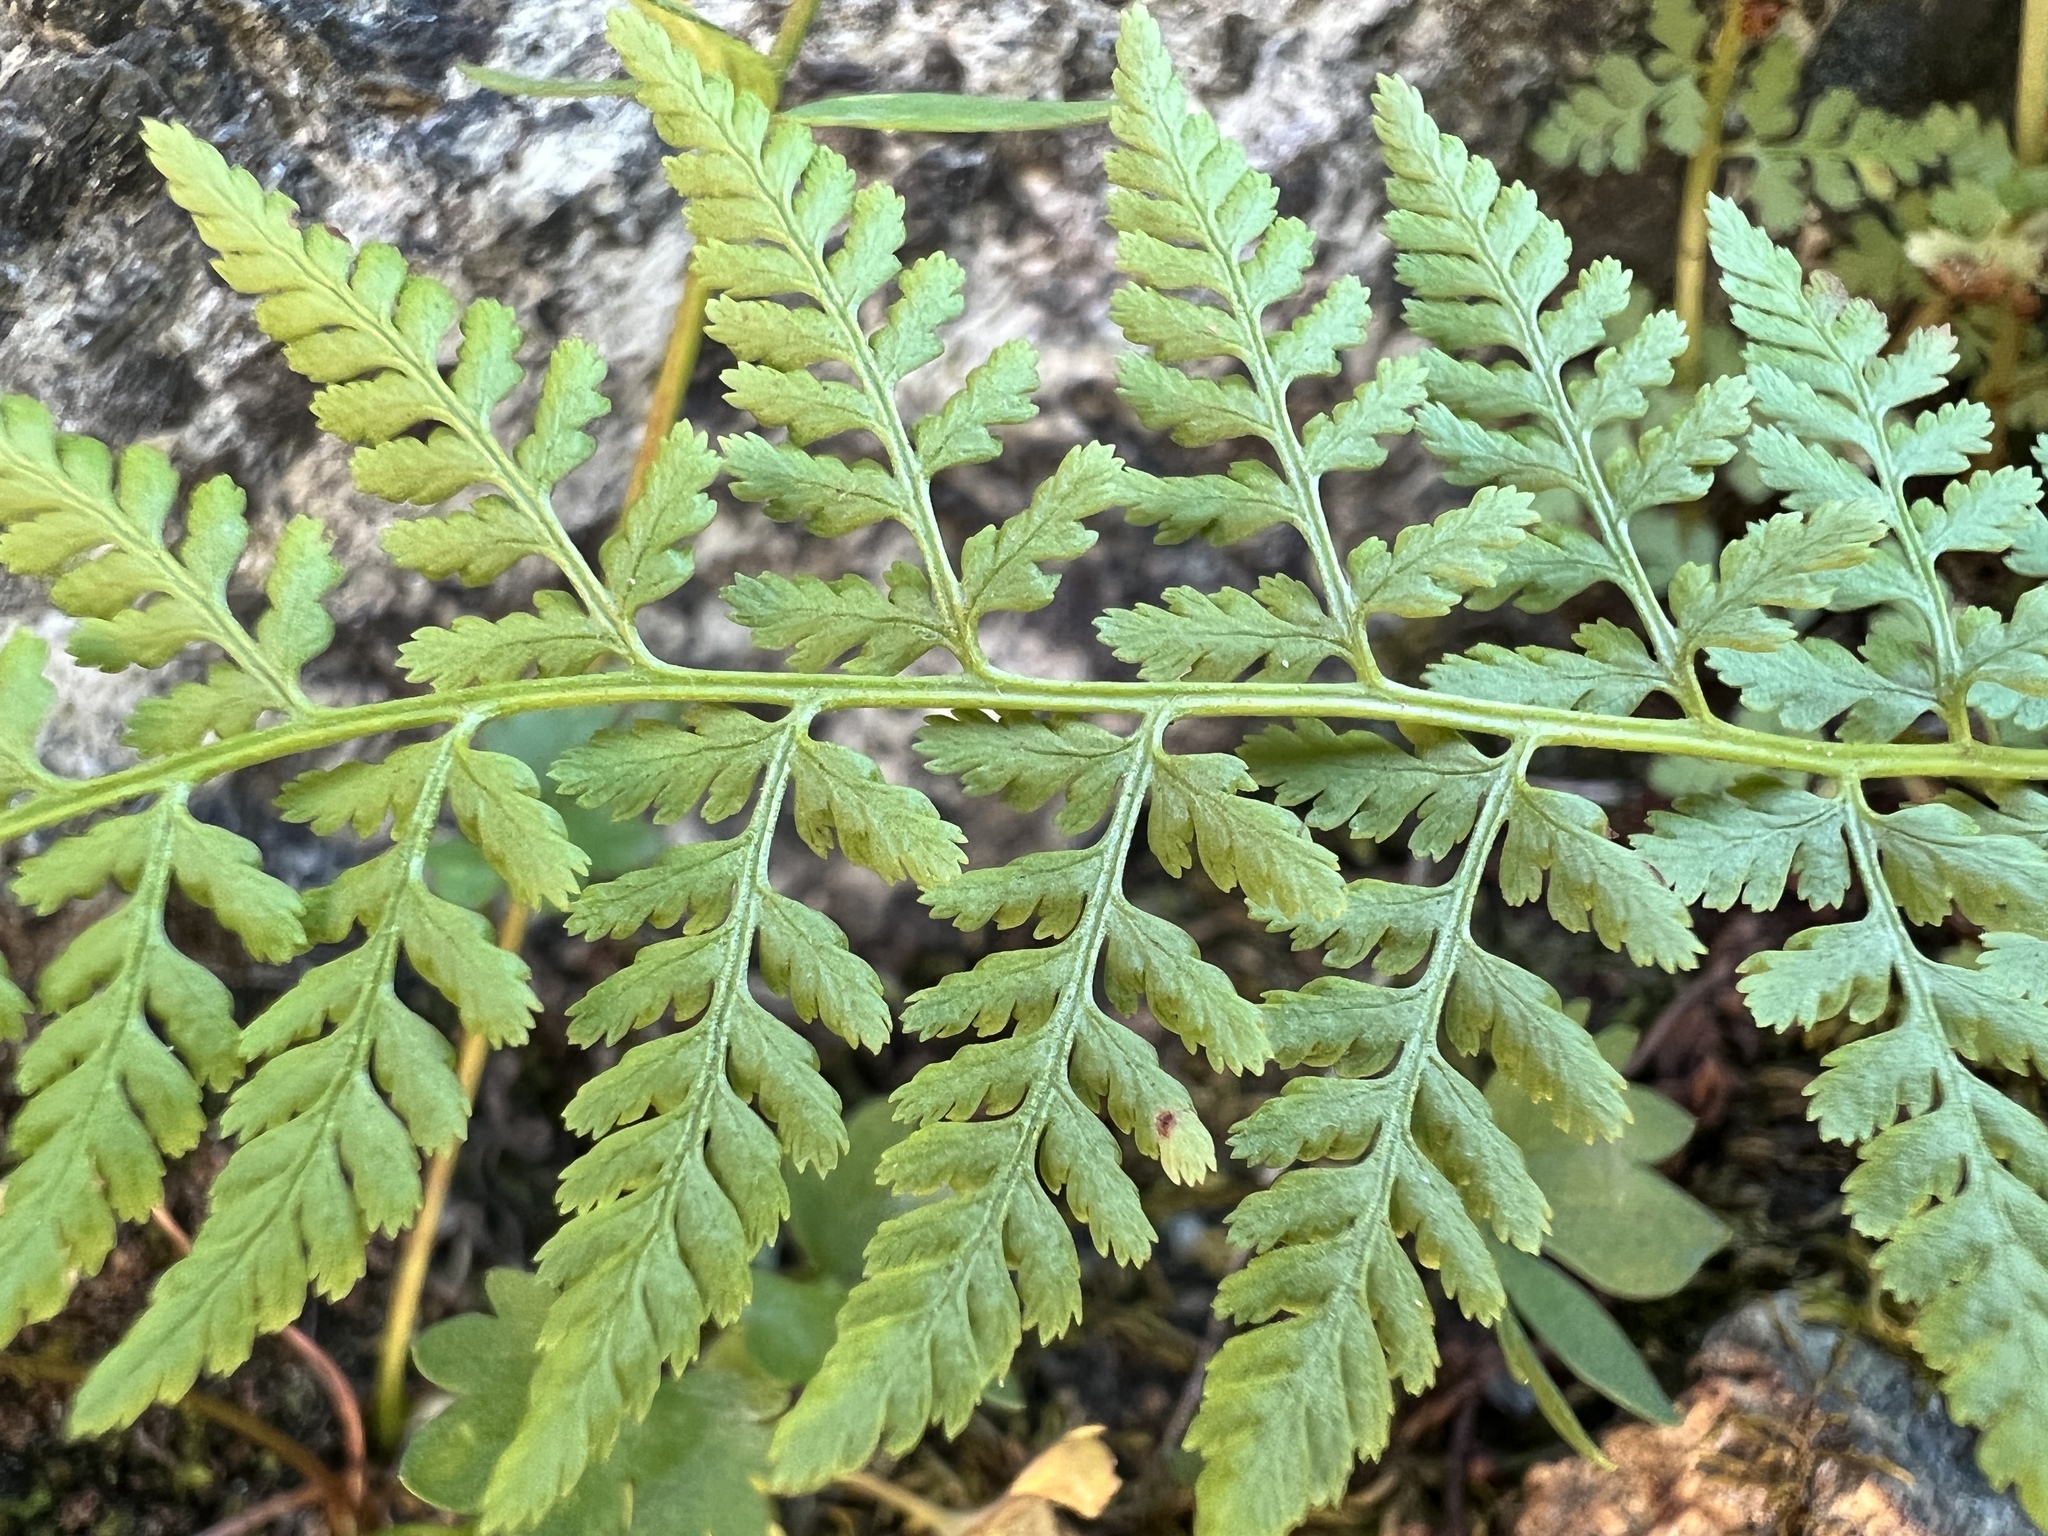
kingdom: Plantae
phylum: Tracheophyta
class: Polypodiopsida
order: Polypodiales
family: Cystopteridaceae
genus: Cystopteris
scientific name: Cystopteris fragilis
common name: Brittle bladder fern
